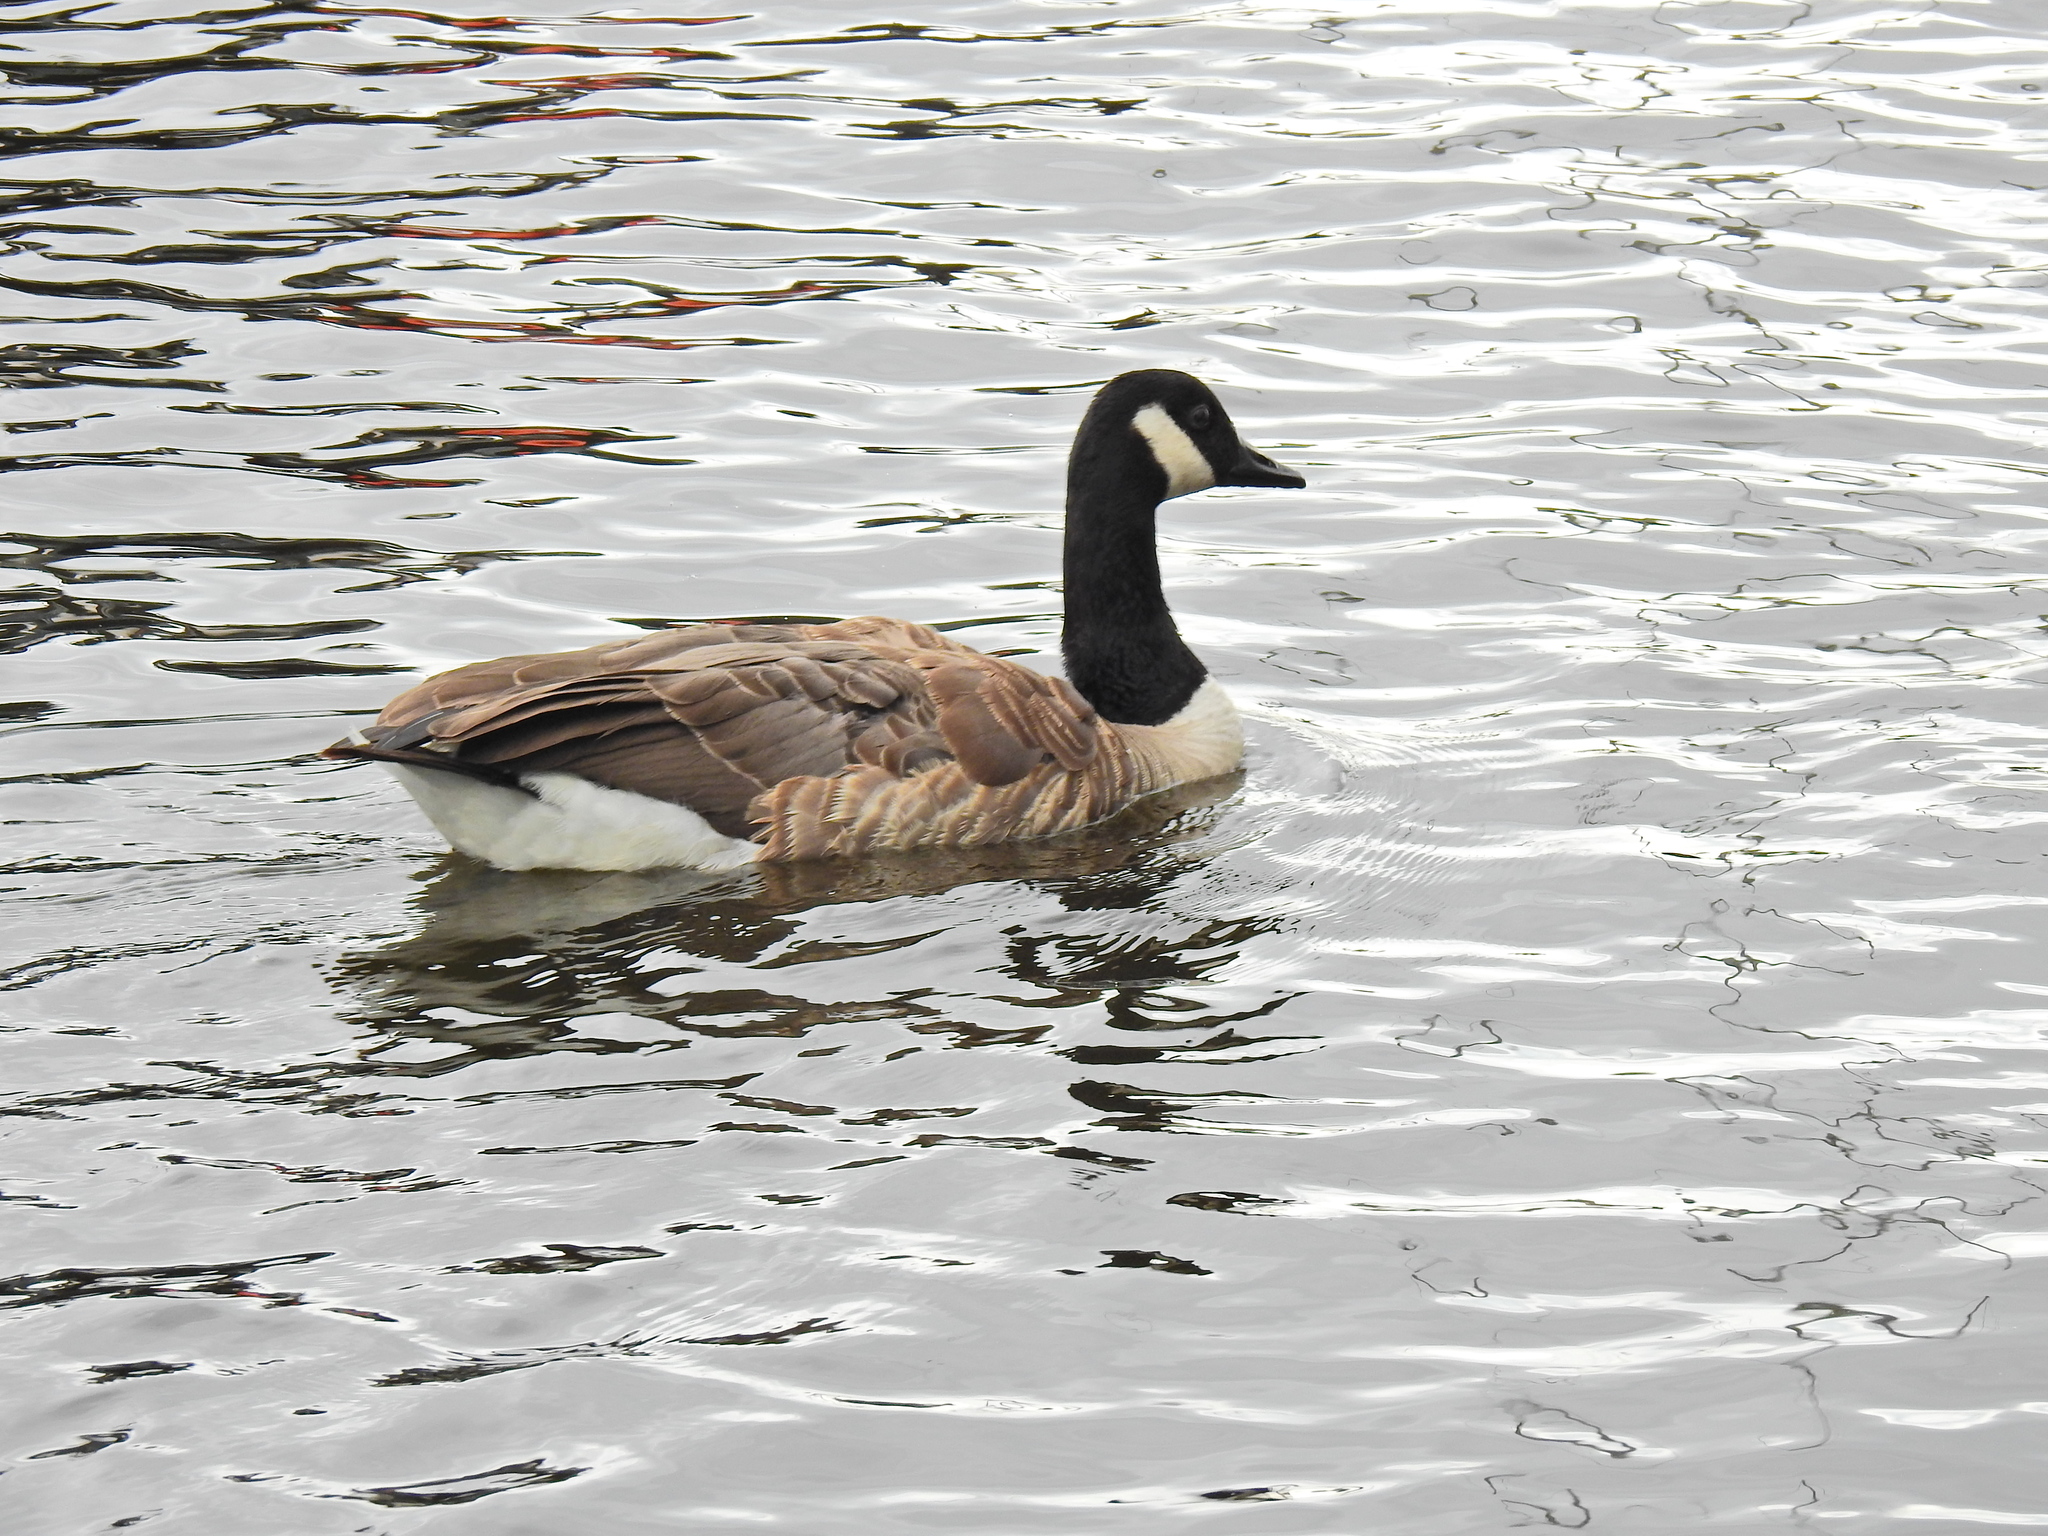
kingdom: Animalia
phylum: Chordata
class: Aves
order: Anseriformes
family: Anatidae
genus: Branta
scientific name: Branta canadensis
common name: Canada goose
